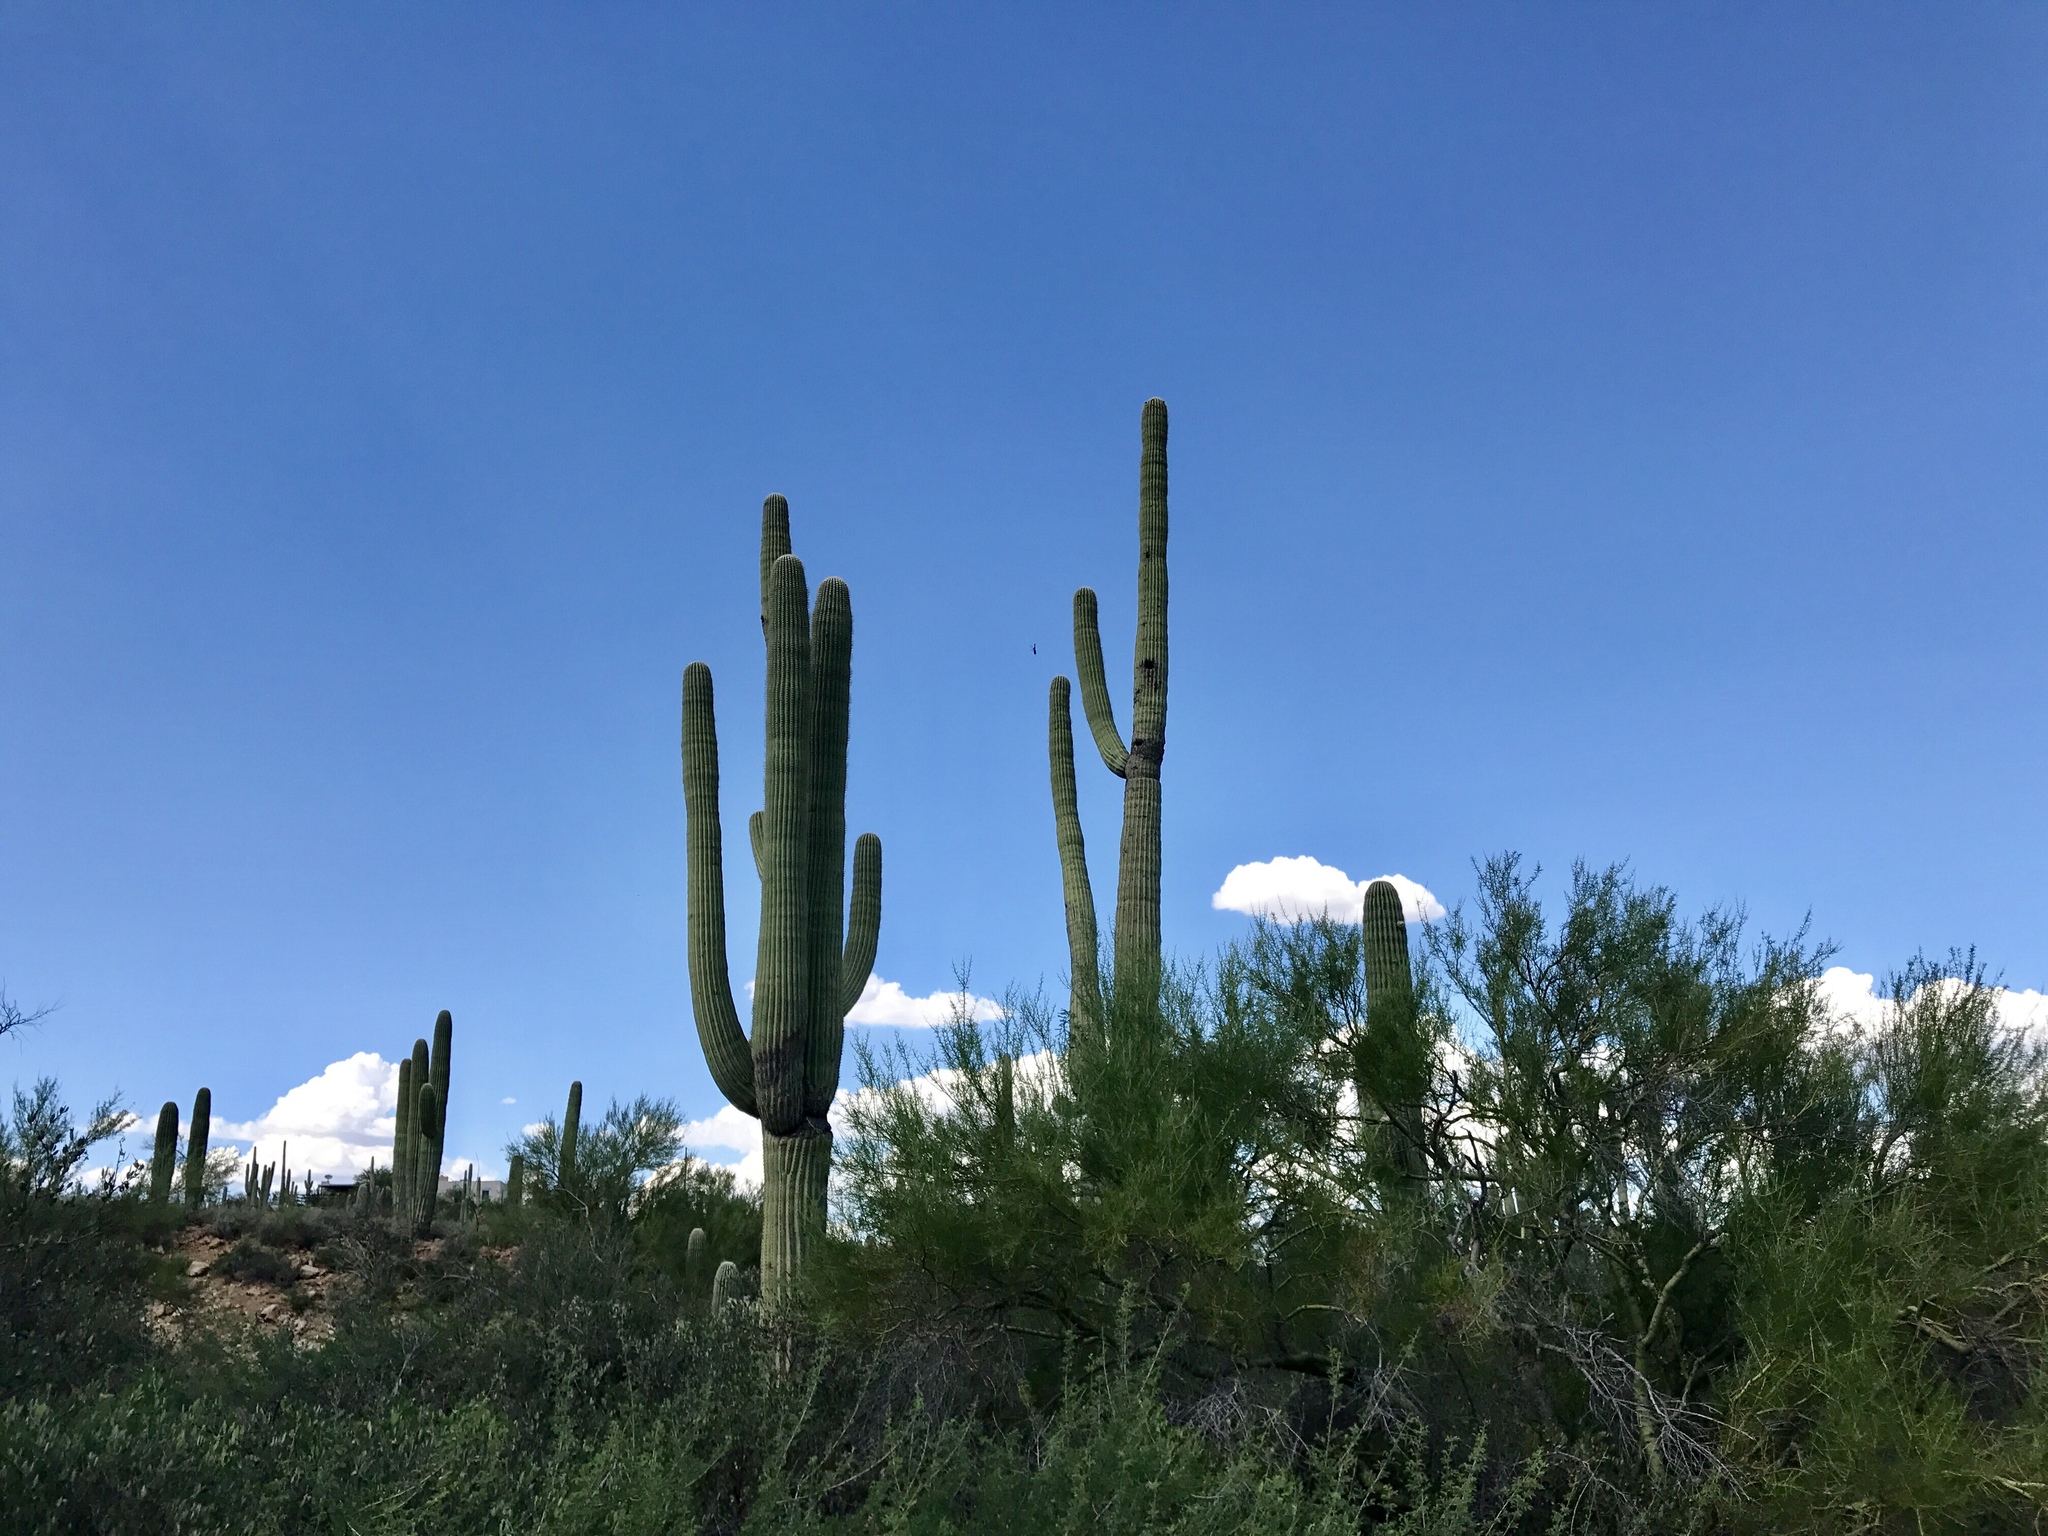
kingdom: Plantae
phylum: Tracheophyta
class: Magnoliopsida
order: Caryophyllales
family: Cactaceae
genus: Carnegiea
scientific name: Carnegiea gigantea
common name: Saguaro
